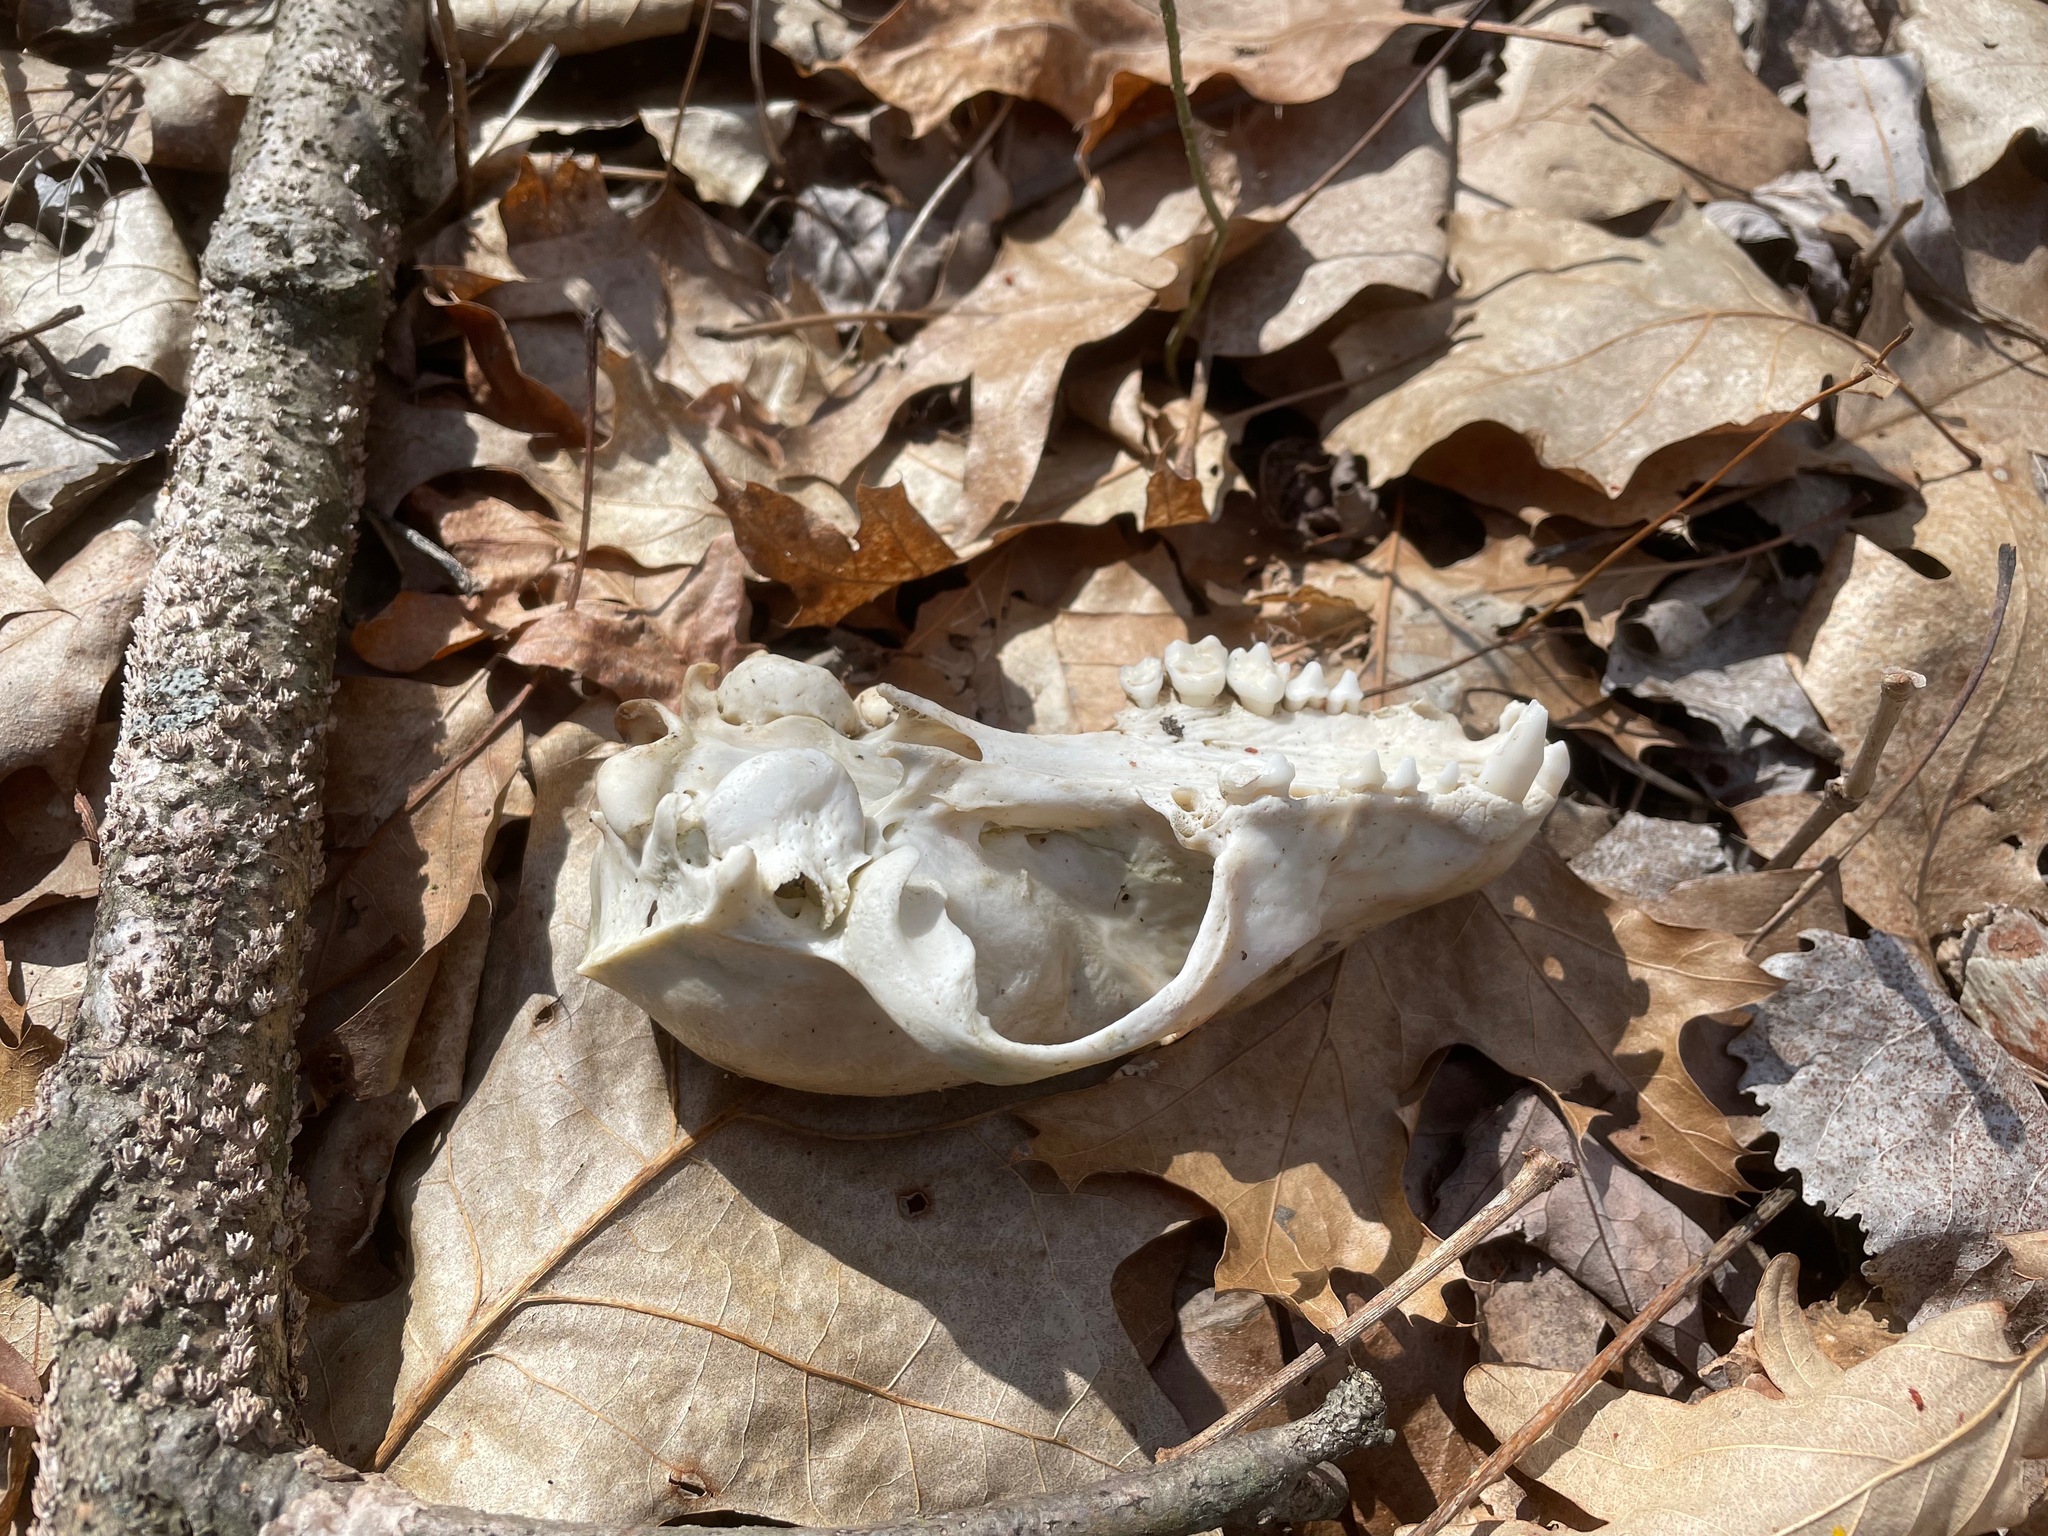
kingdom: Animalia
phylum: Chordata
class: Mammalia
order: Carnivora
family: Procyonidae
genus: Procyon
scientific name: Procyon lotor
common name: Raccoon
